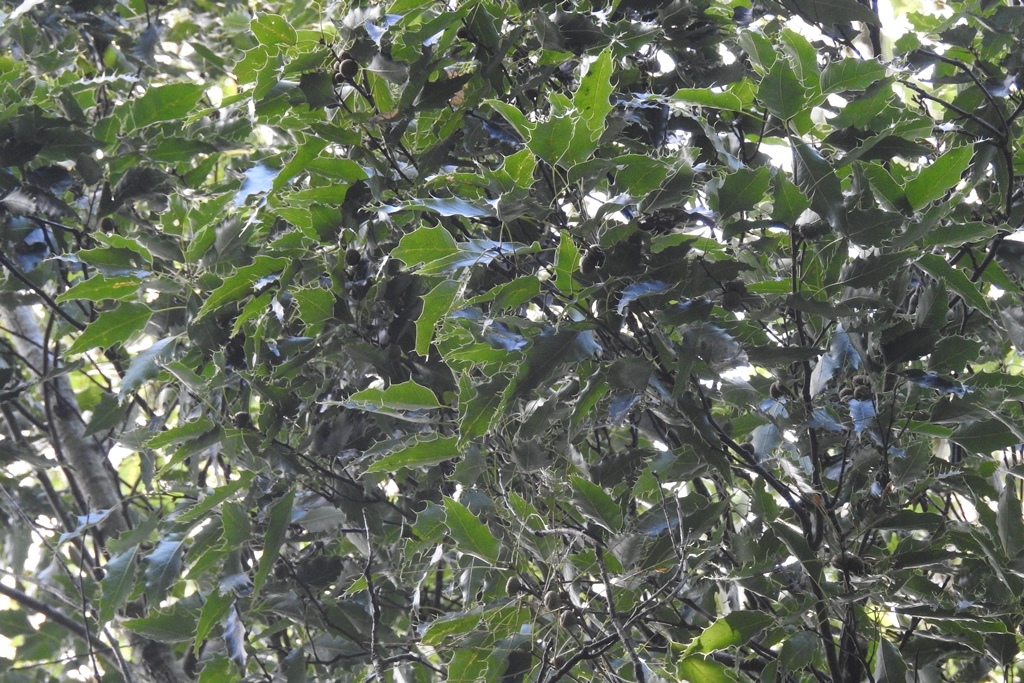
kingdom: Plantae
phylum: Tracheophyta
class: Magnoliopsida
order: Fagales
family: Fagaceae
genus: Quercus
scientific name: Quercus paxtalensis
